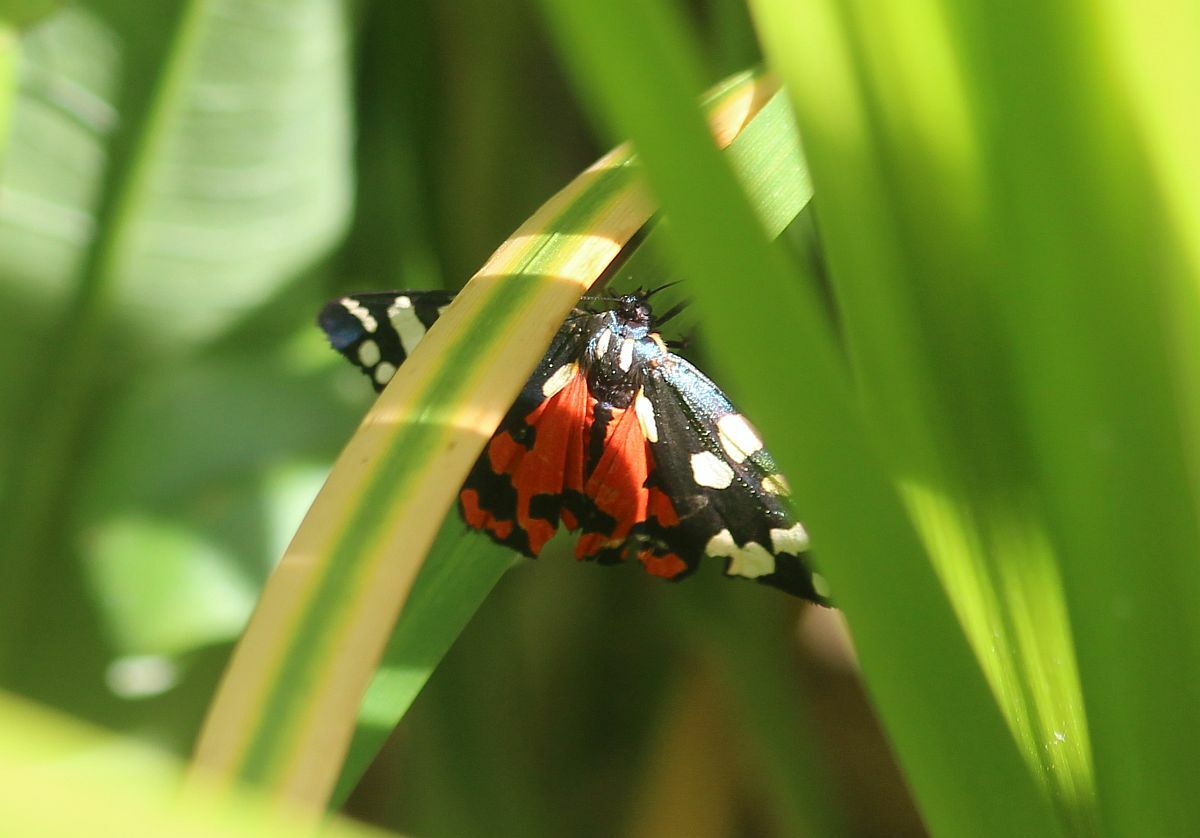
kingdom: Animalia
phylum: Arthropoda
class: Insecta
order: Lepidoptera
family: Erebidae
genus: Callimorpha
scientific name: Callimorpha dominula
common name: Scarlet tiger
